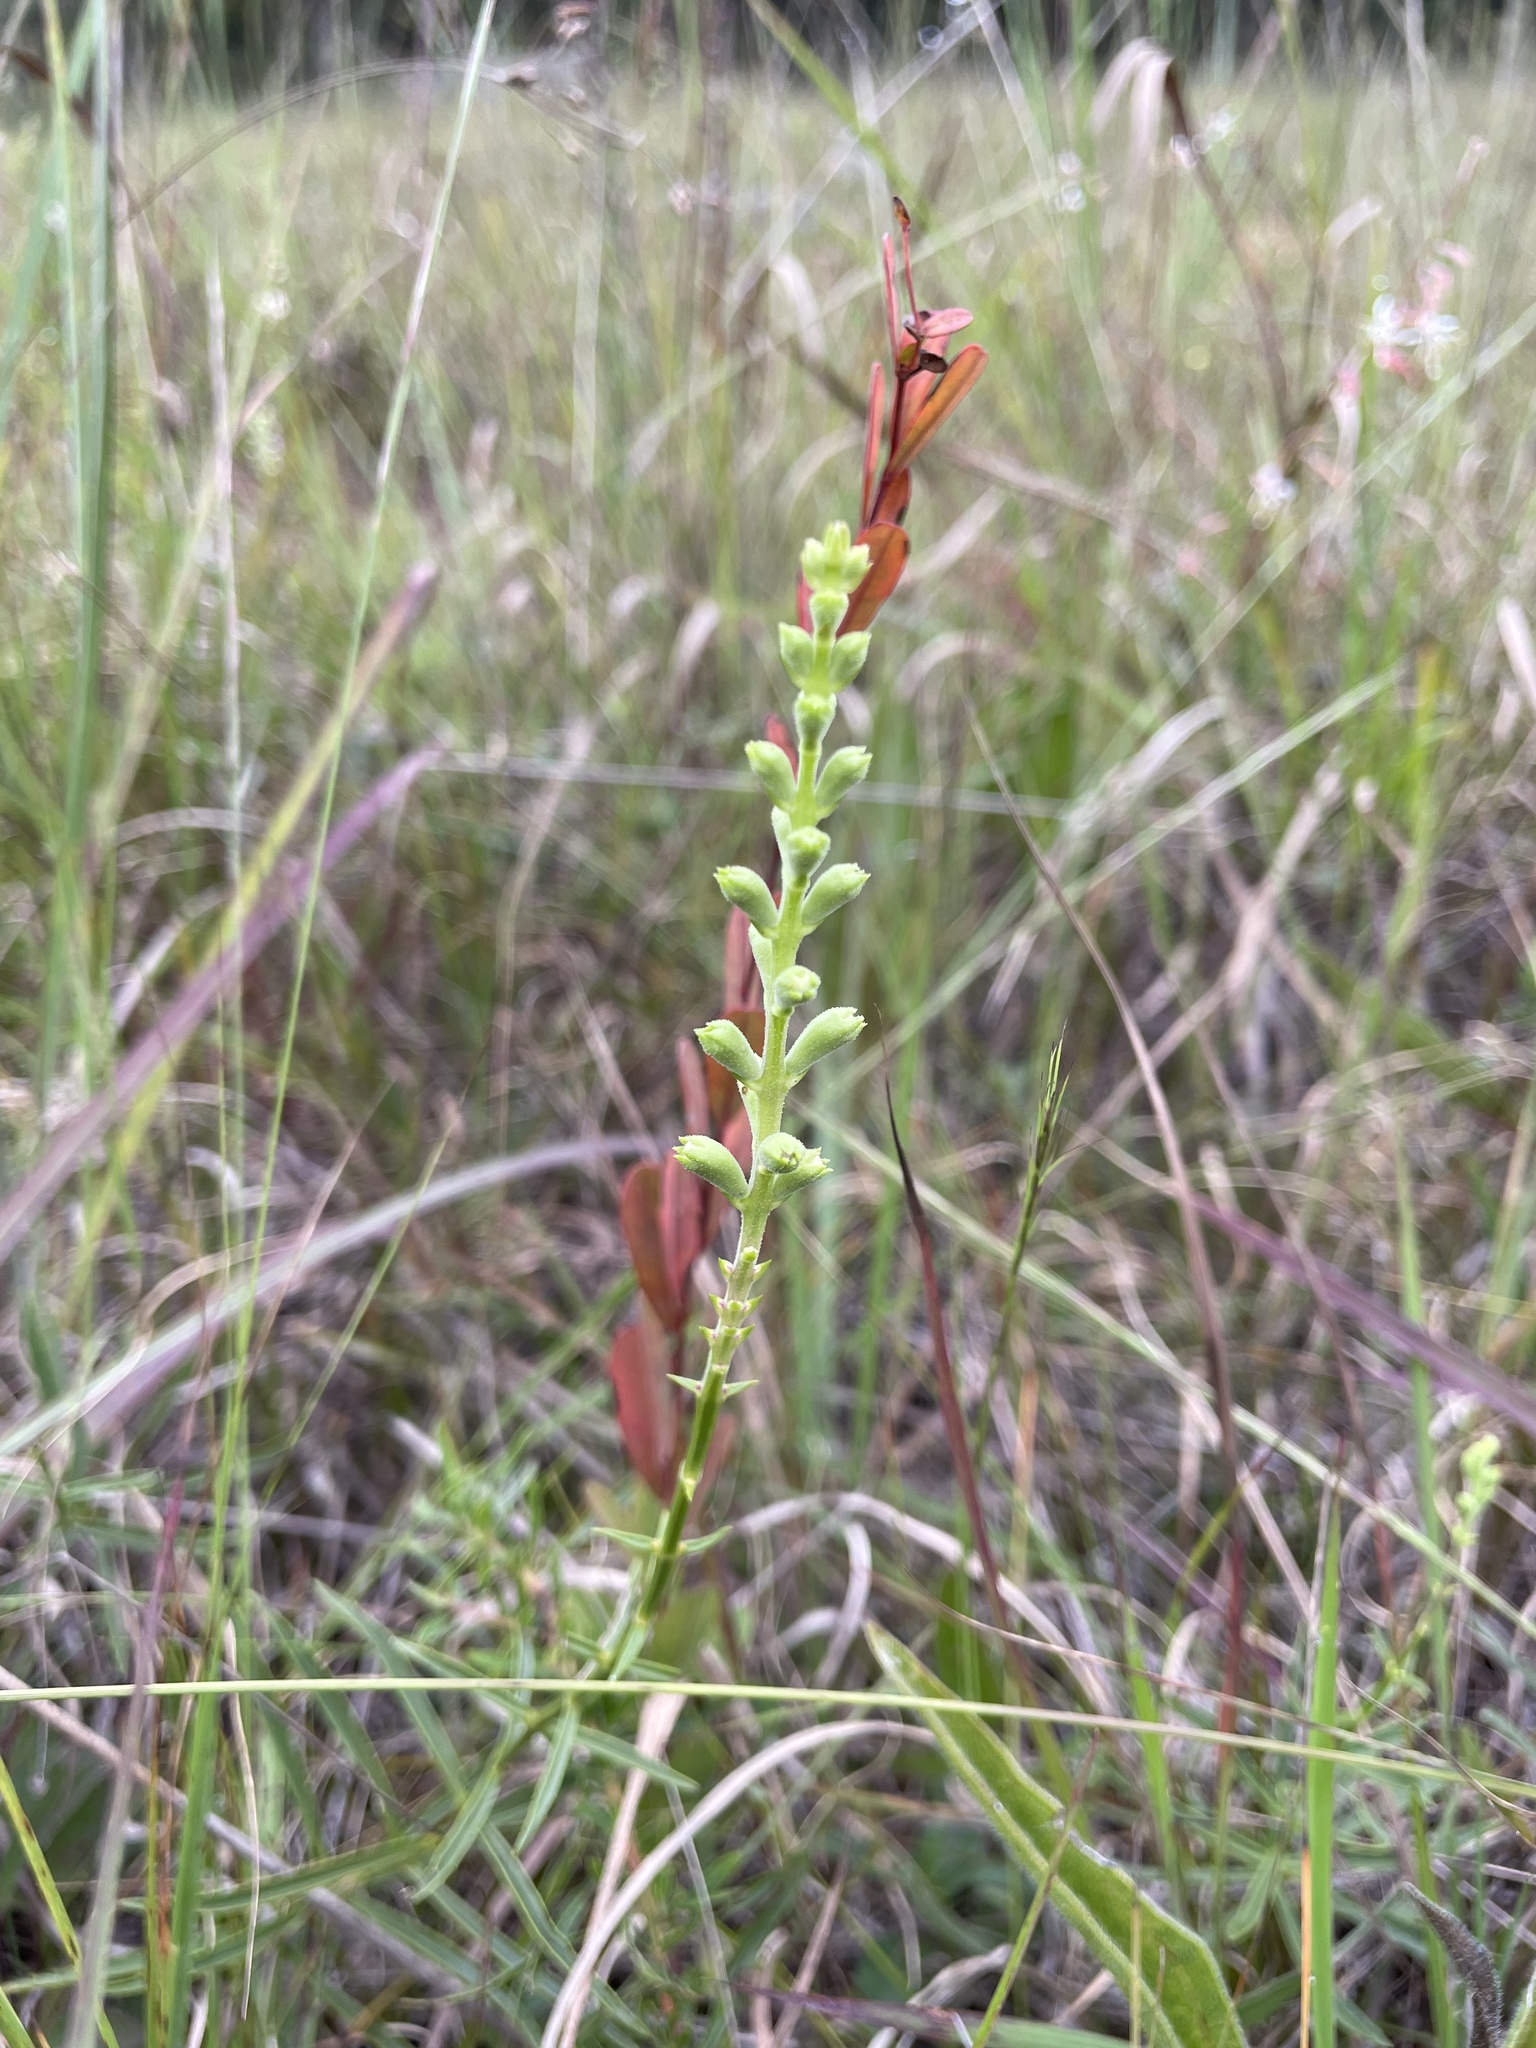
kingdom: Plantae
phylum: Tracheophyta
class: Magnoliopsida
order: Lamiales
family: Lamiaceae
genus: Physostegia
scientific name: Physostegia virginiana
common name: Obedient-plant
